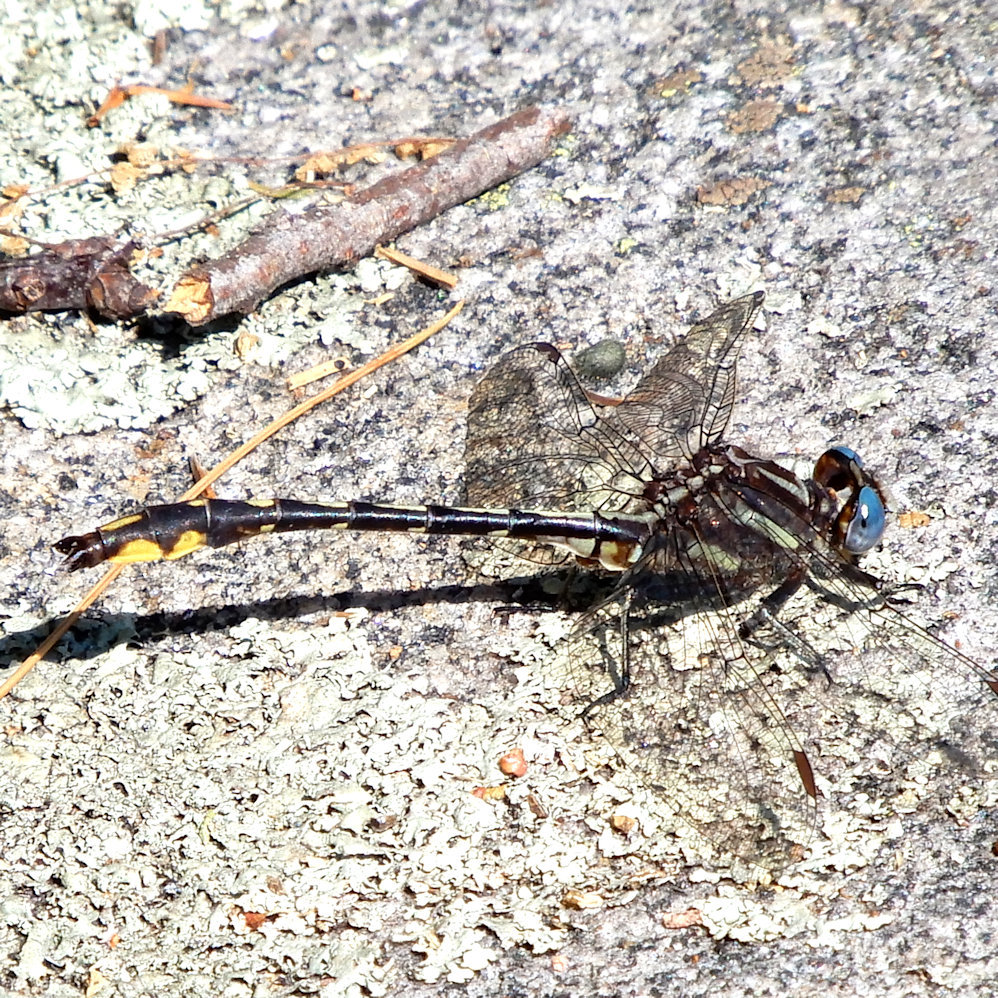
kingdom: Animalia
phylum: Arthropoda
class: Insecta
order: Odonata
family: Gomphidae
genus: Phanogomphus
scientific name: Phanogomphus exilis
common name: Lancet clubtail
